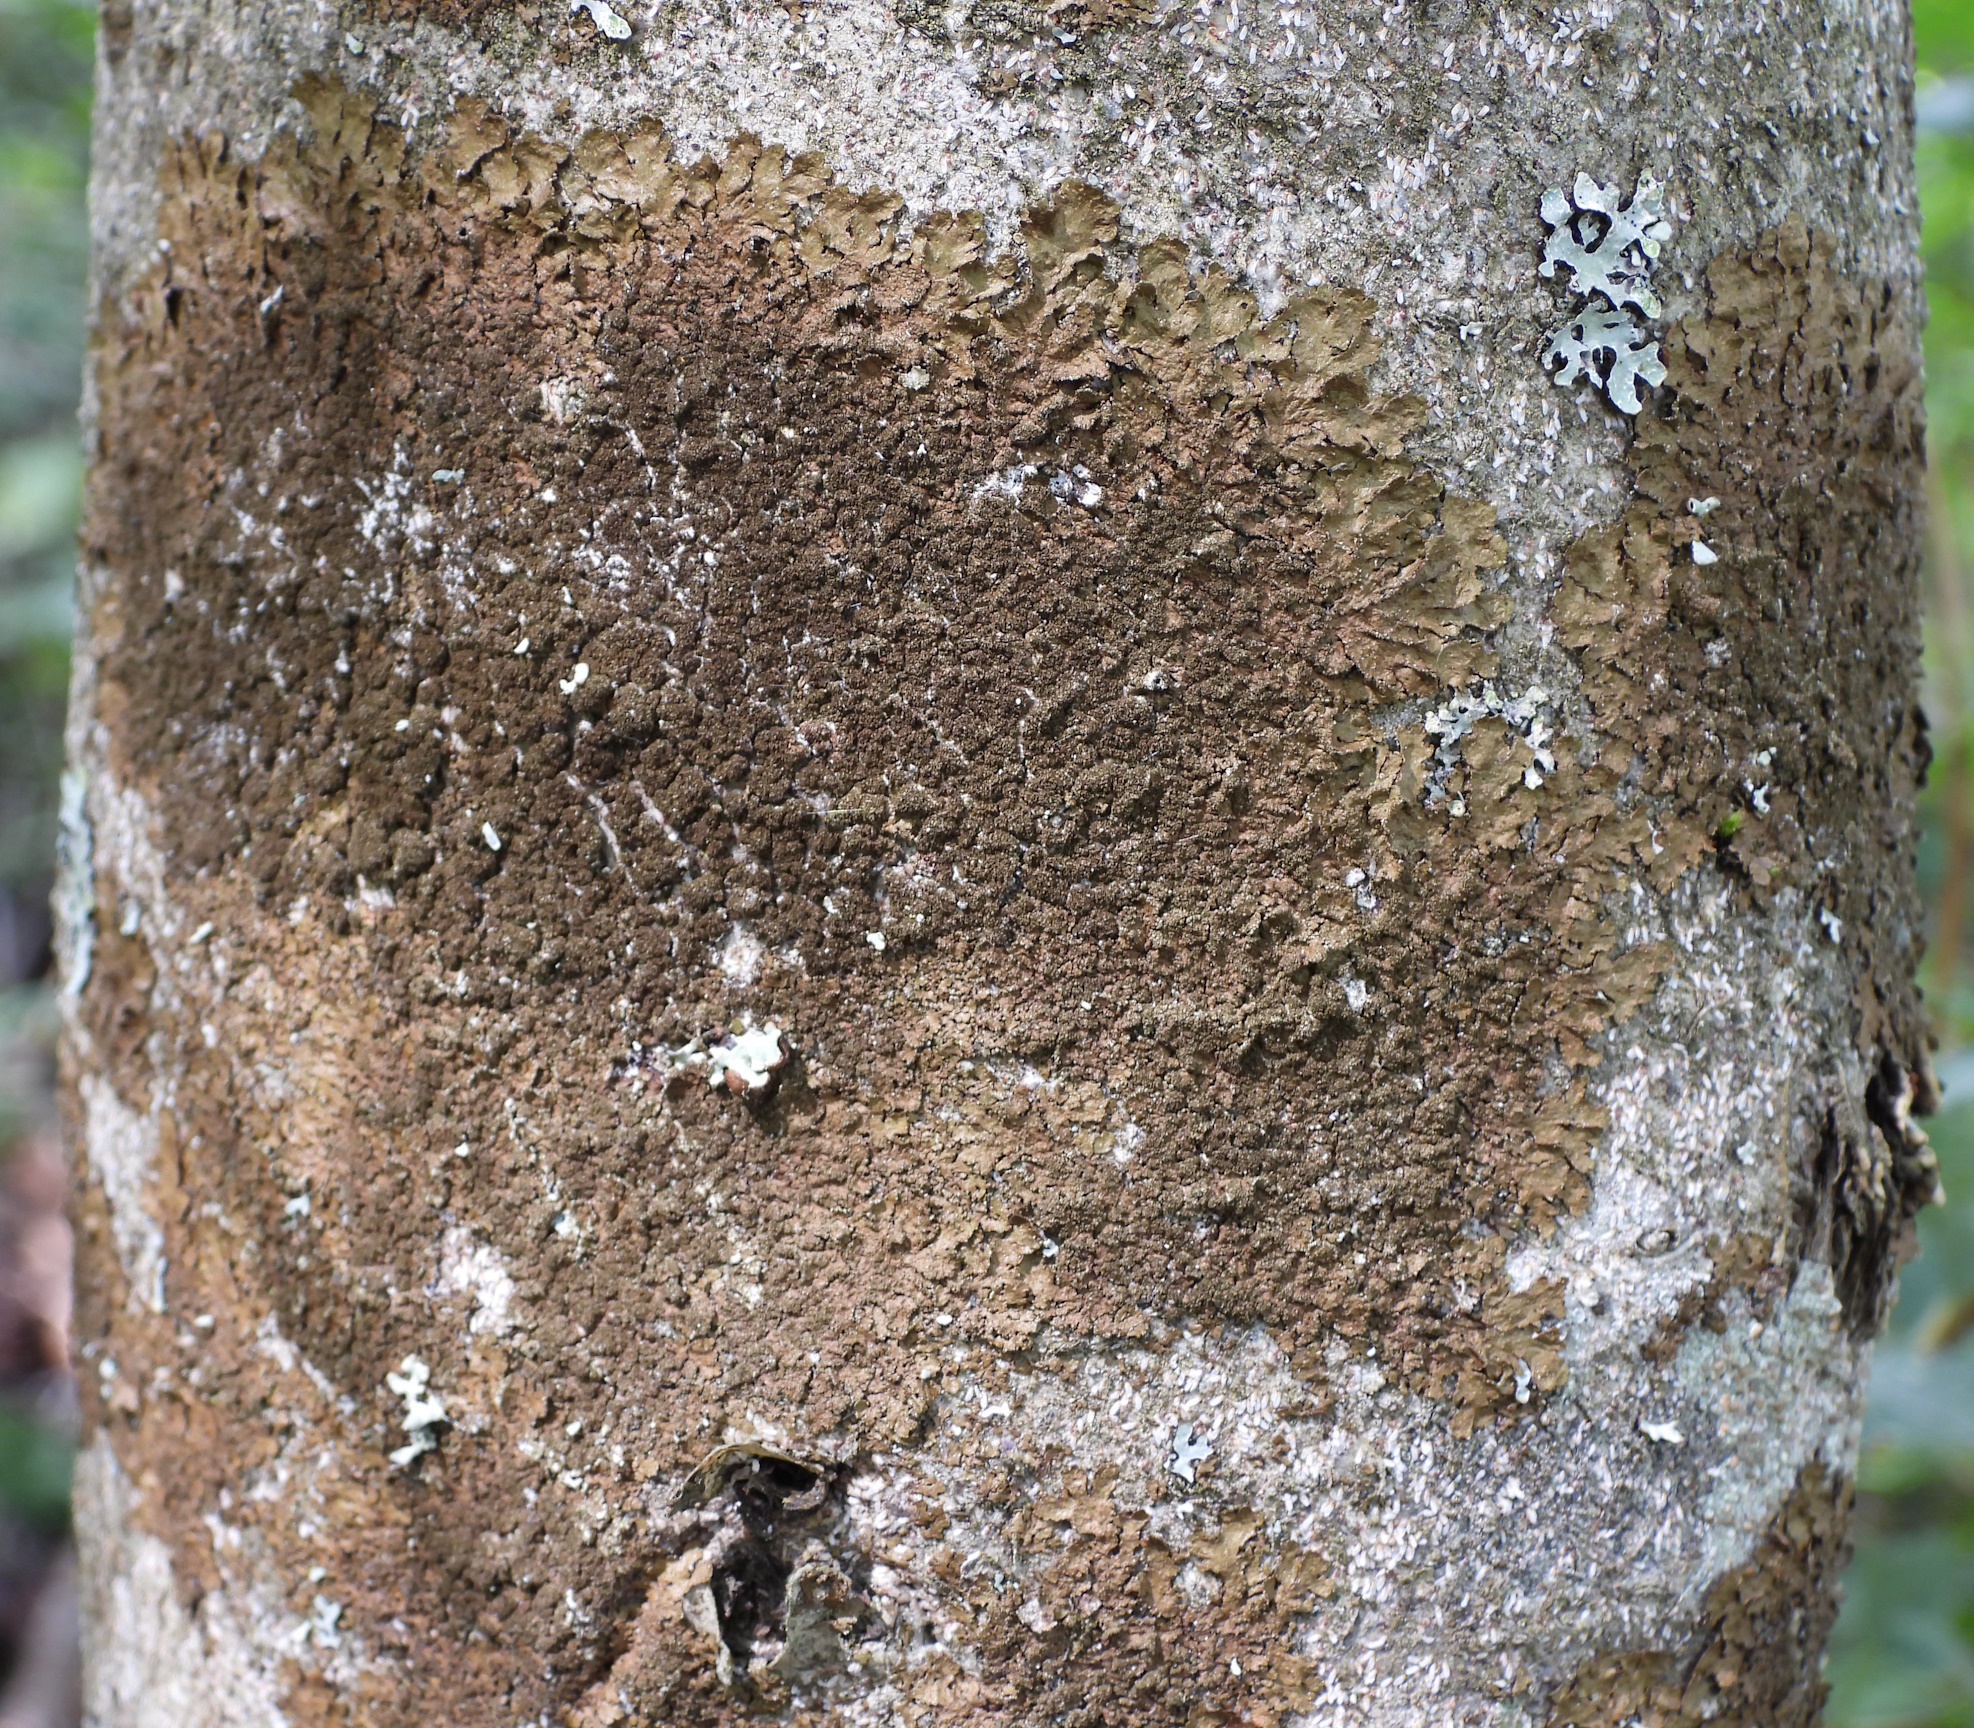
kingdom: Fungi
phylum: Ascomycota
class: Lecanoromycetes
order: Lecanorales
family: Parmeliaceae
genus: Melanelixia
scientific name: Melanelixia glabratula
